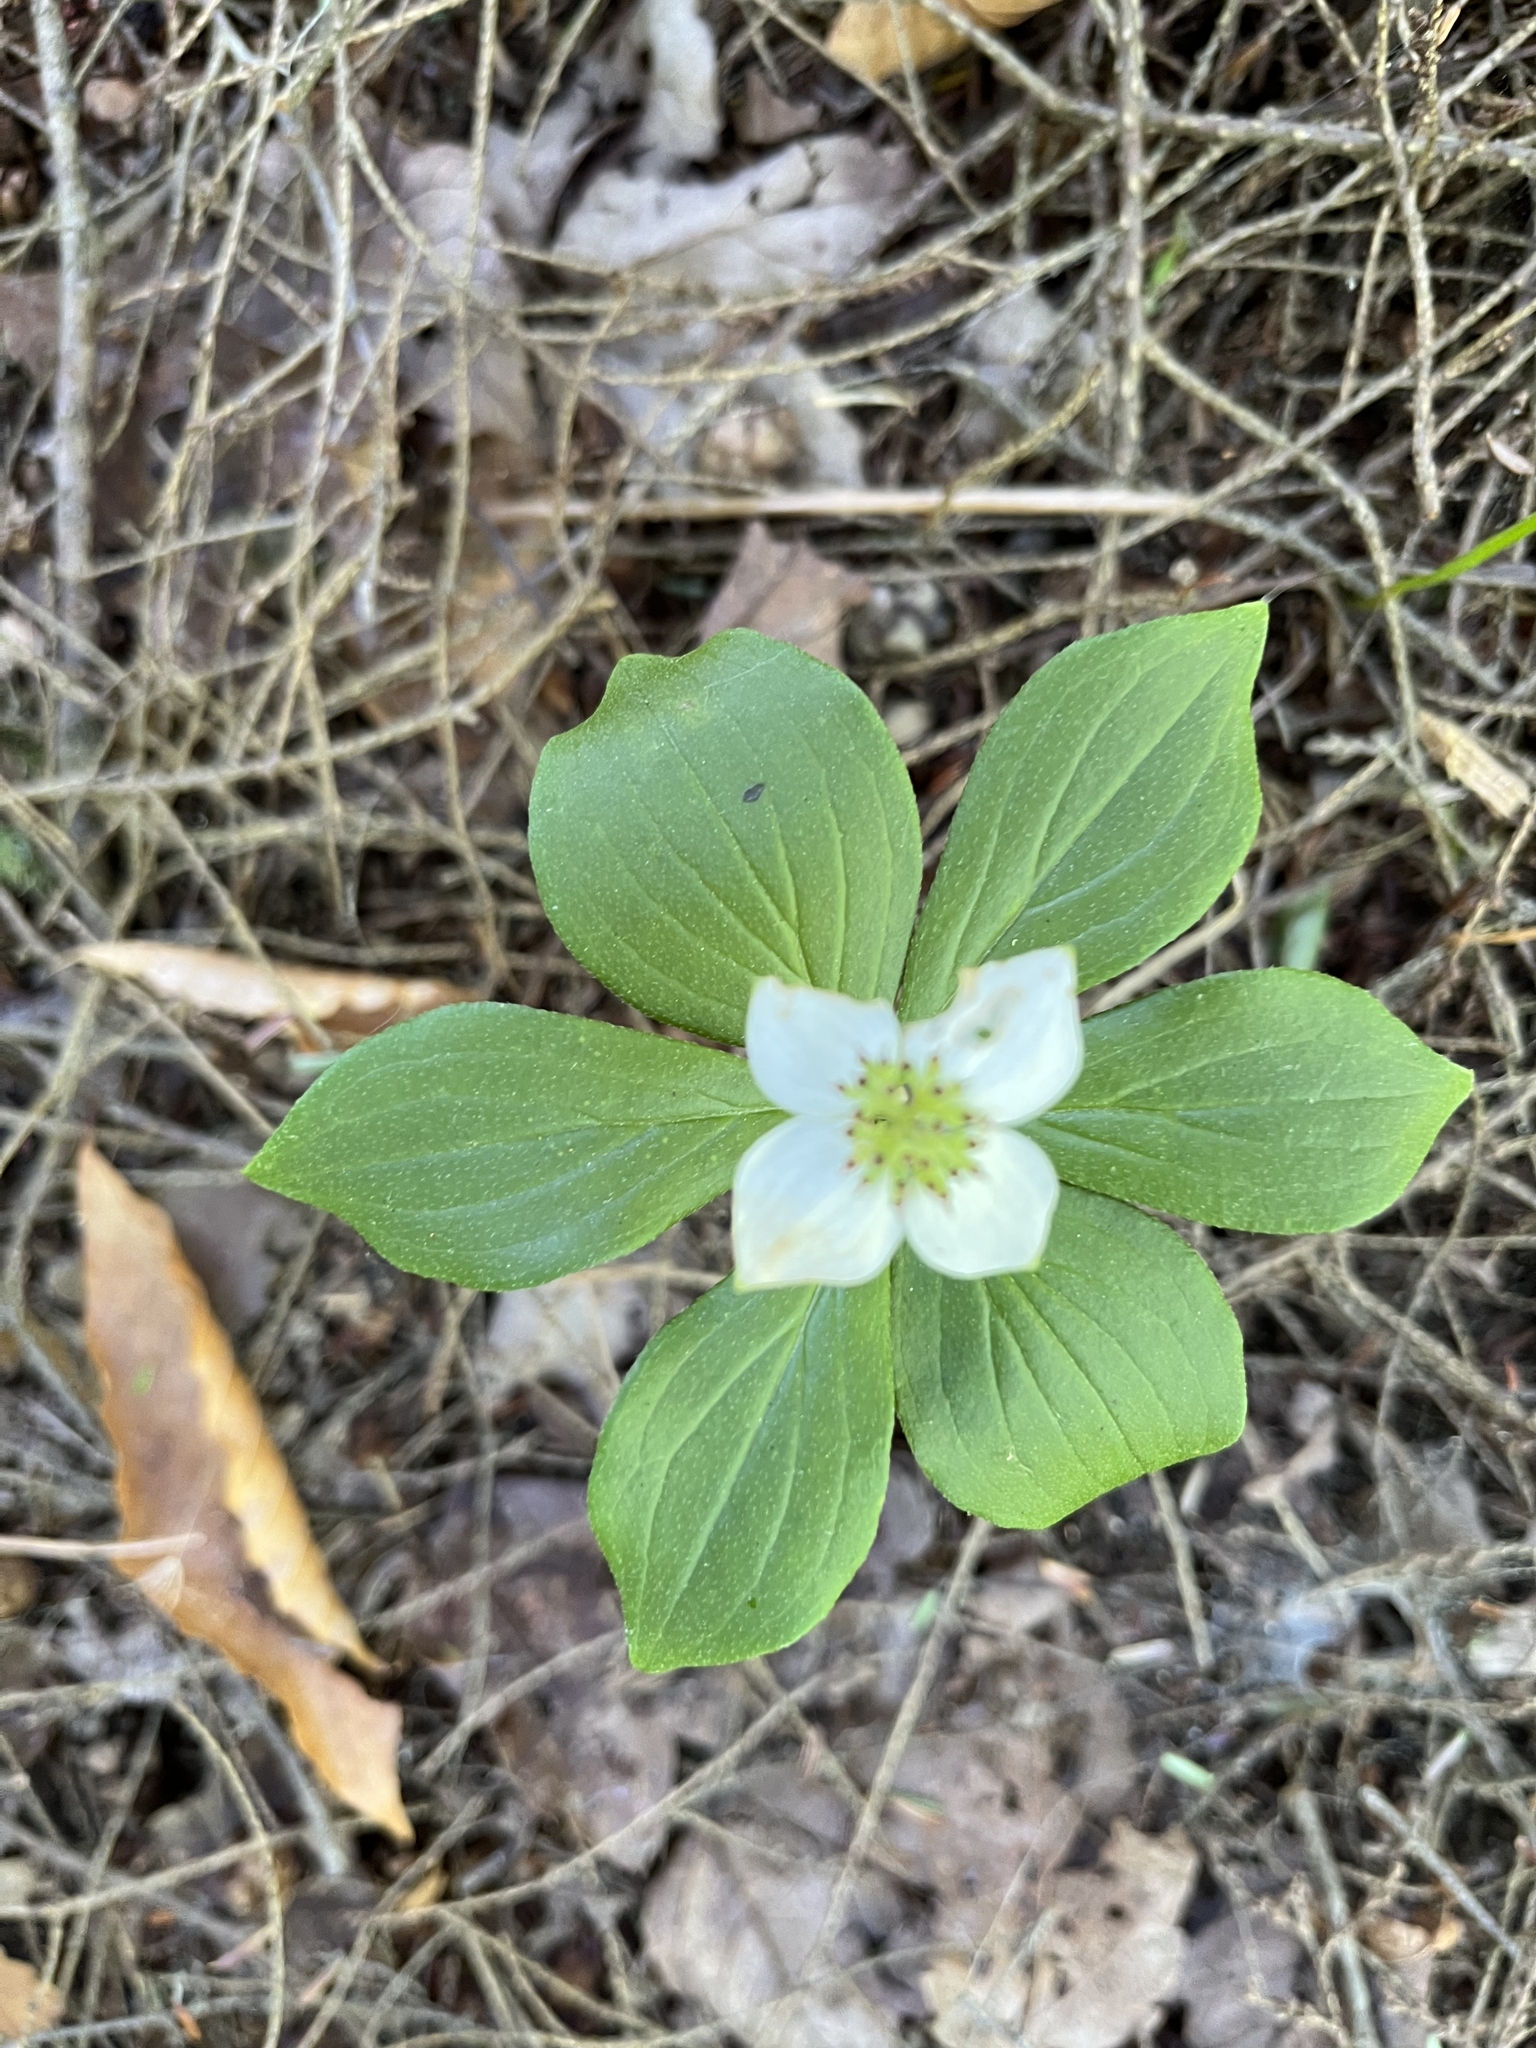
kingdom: Plantae
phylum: Tracheophyta
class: Magnoliopsida
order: Cornales
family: Cornaceae
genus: Cornus
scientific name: Cornus canadensis
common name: Creeping dogwood
